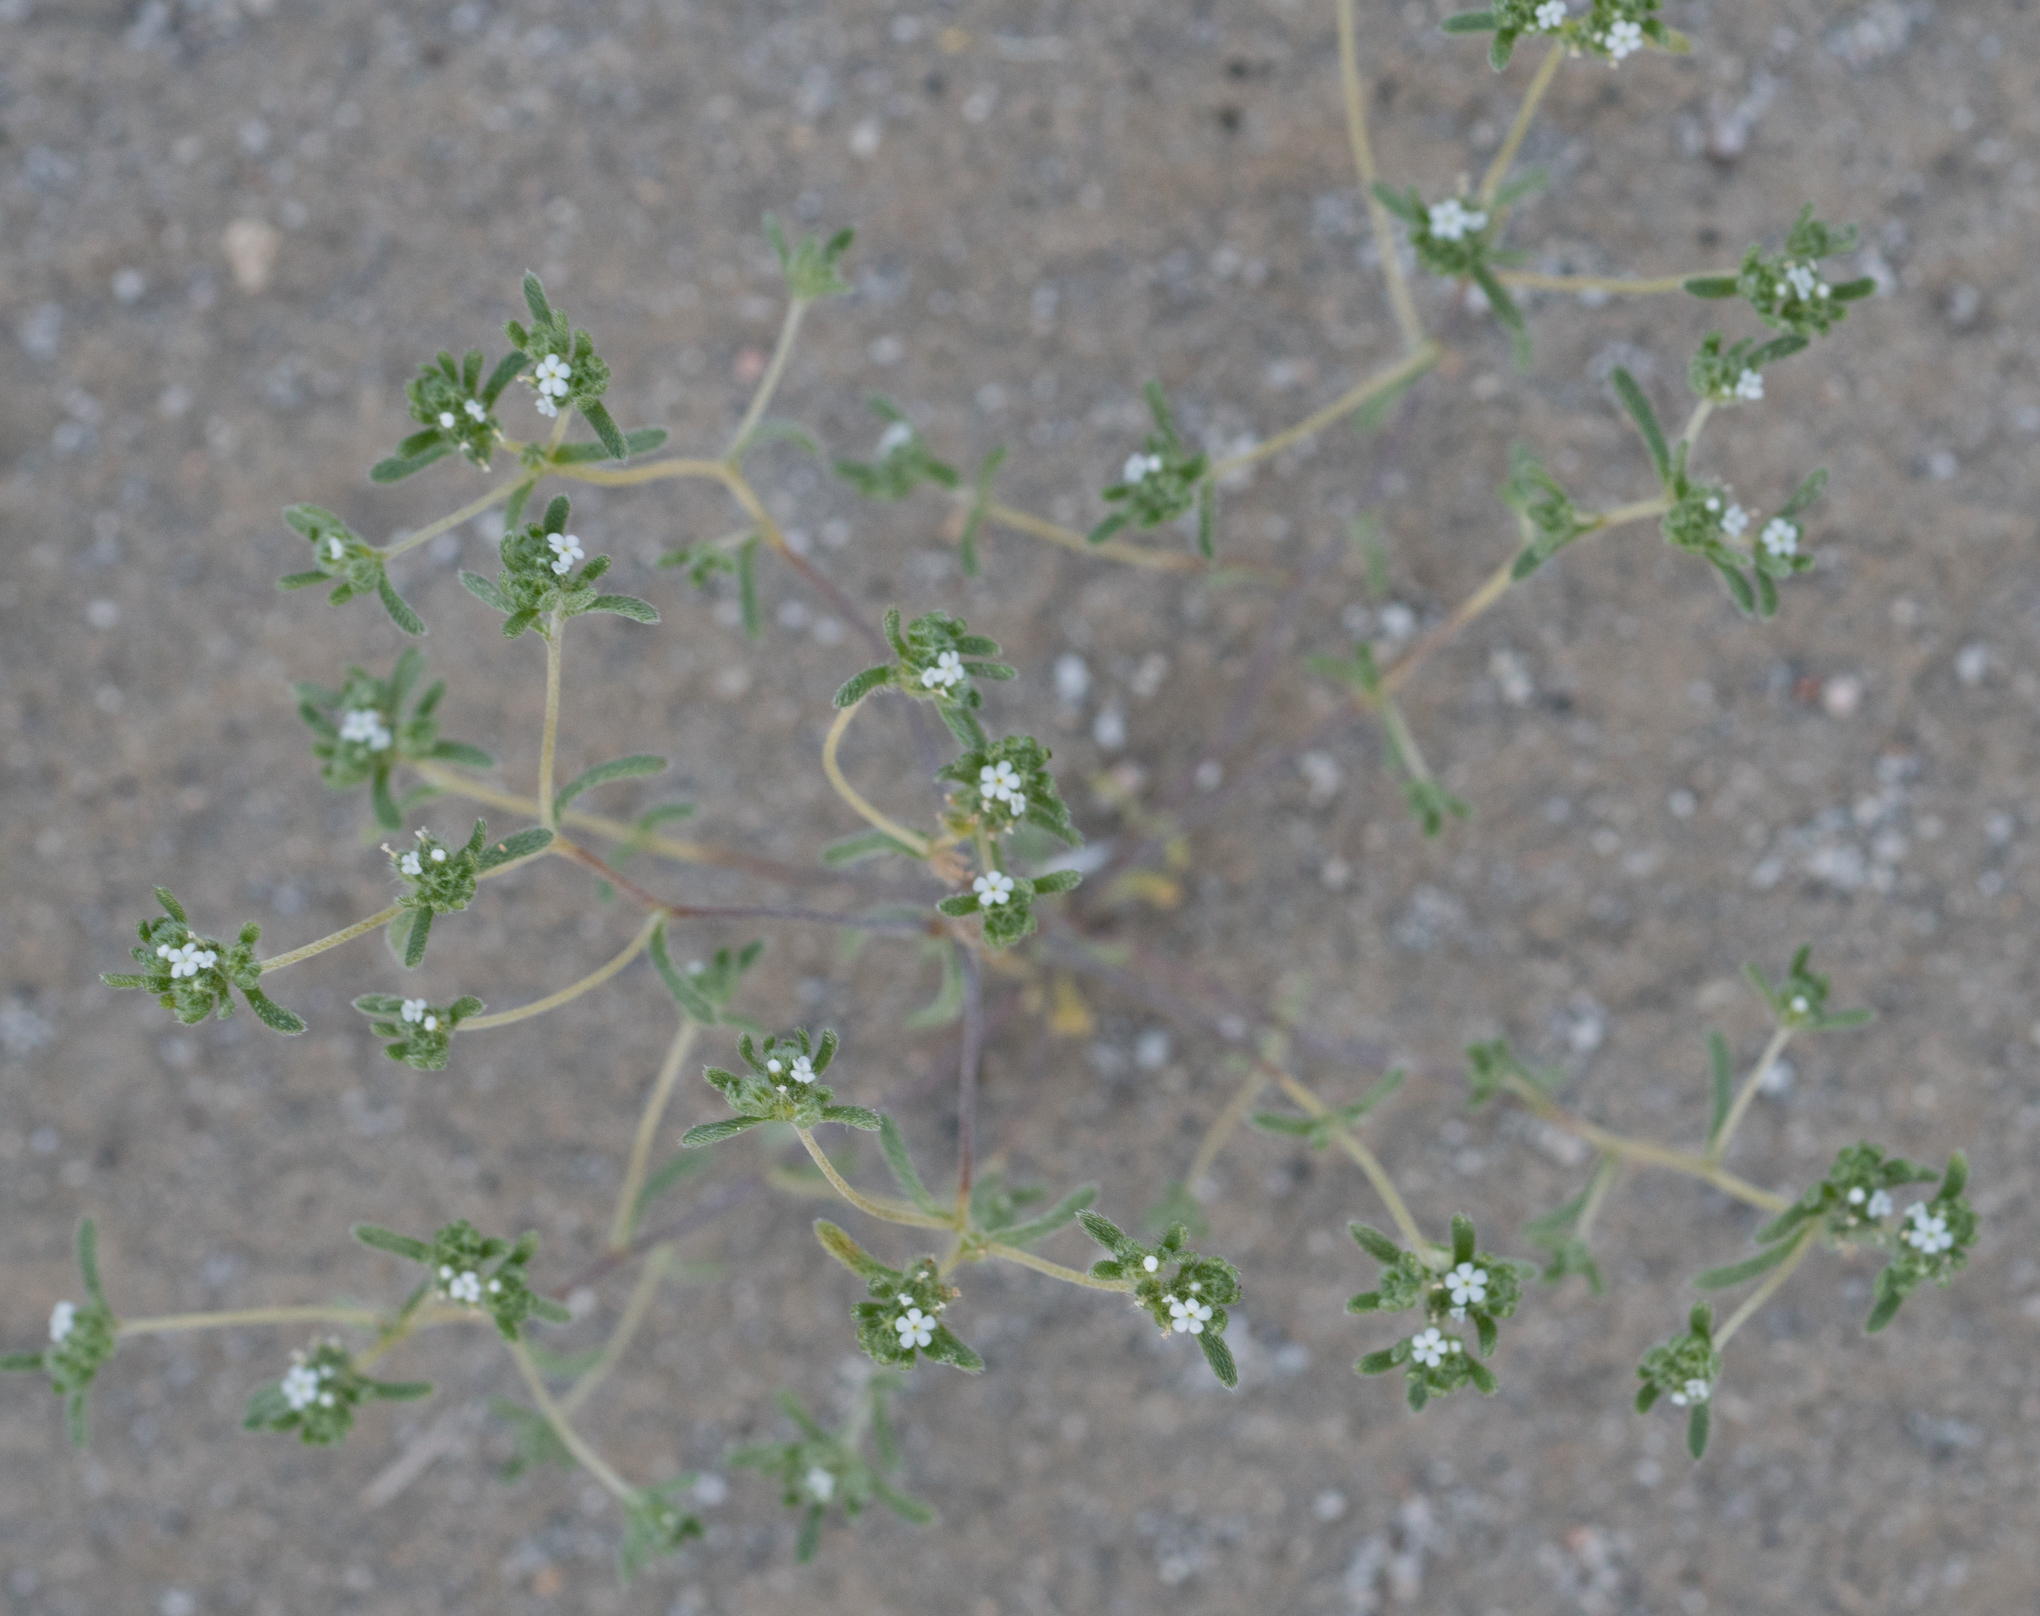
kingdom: Plantae
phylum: Tracheophyta
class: Magnoliopsida
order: Boraginales
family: Boraginaceae
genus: Eremocarya
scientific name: Eremocarya micrantha
